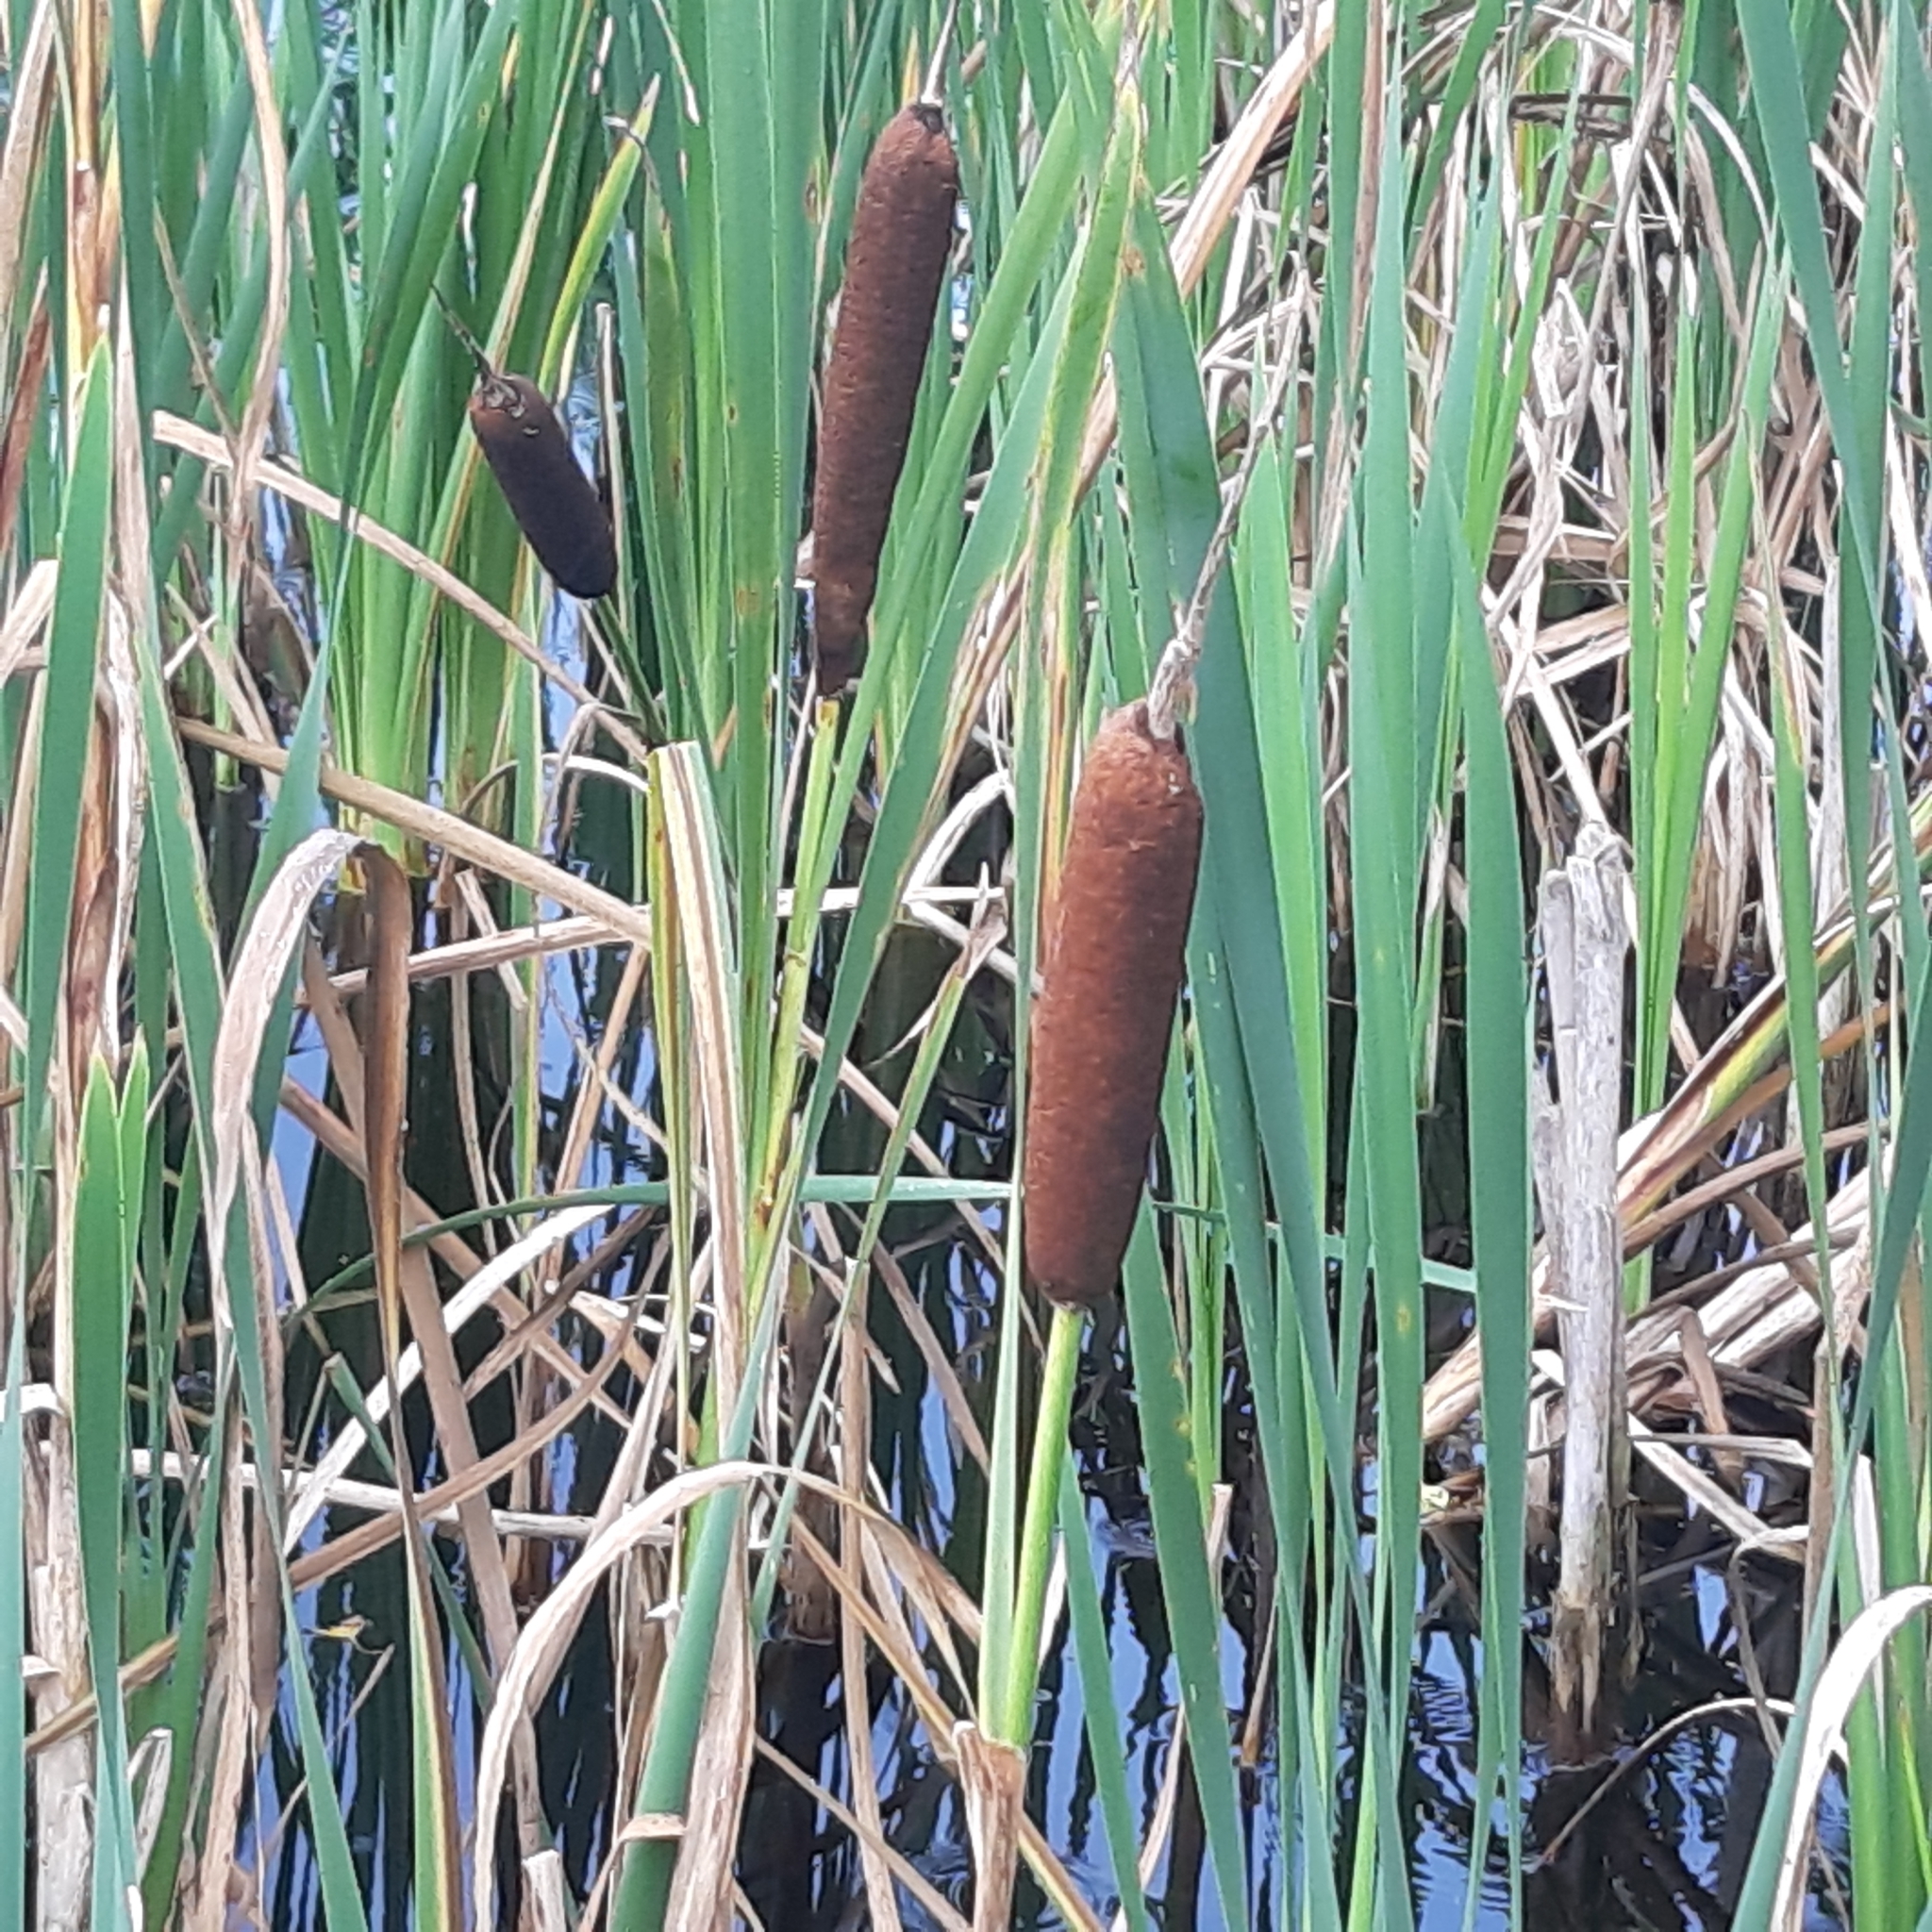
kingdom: Plantae
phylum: Tracheophyta
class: Liliopsida
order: Poales
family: Typhaceae
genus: Typha
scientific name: Typha latifolia
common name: Broadleaf cattail
